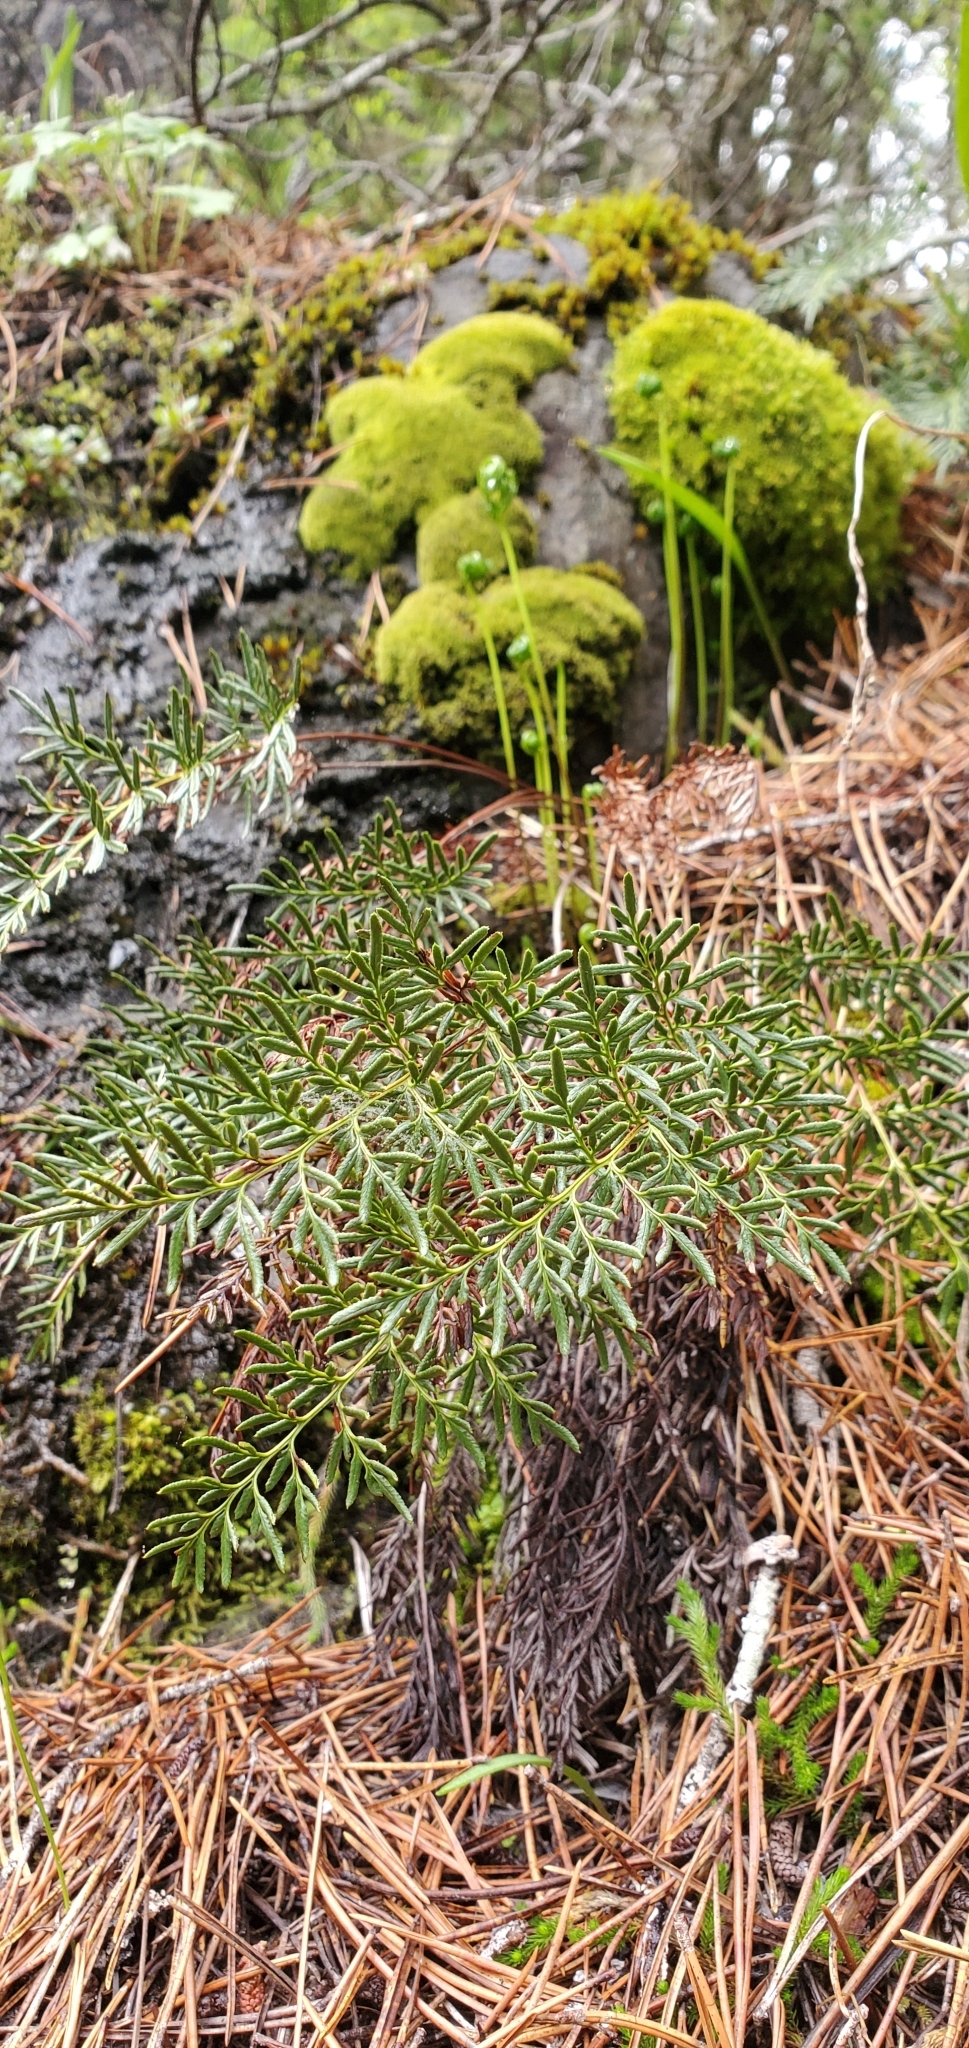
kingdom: Plantae
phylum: Tracheophyta
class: Polypodiopsida
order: Polypodiales
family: Pteridaceae
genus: Aspidotis
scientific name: Aspidotis densa
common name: Indian's dream
